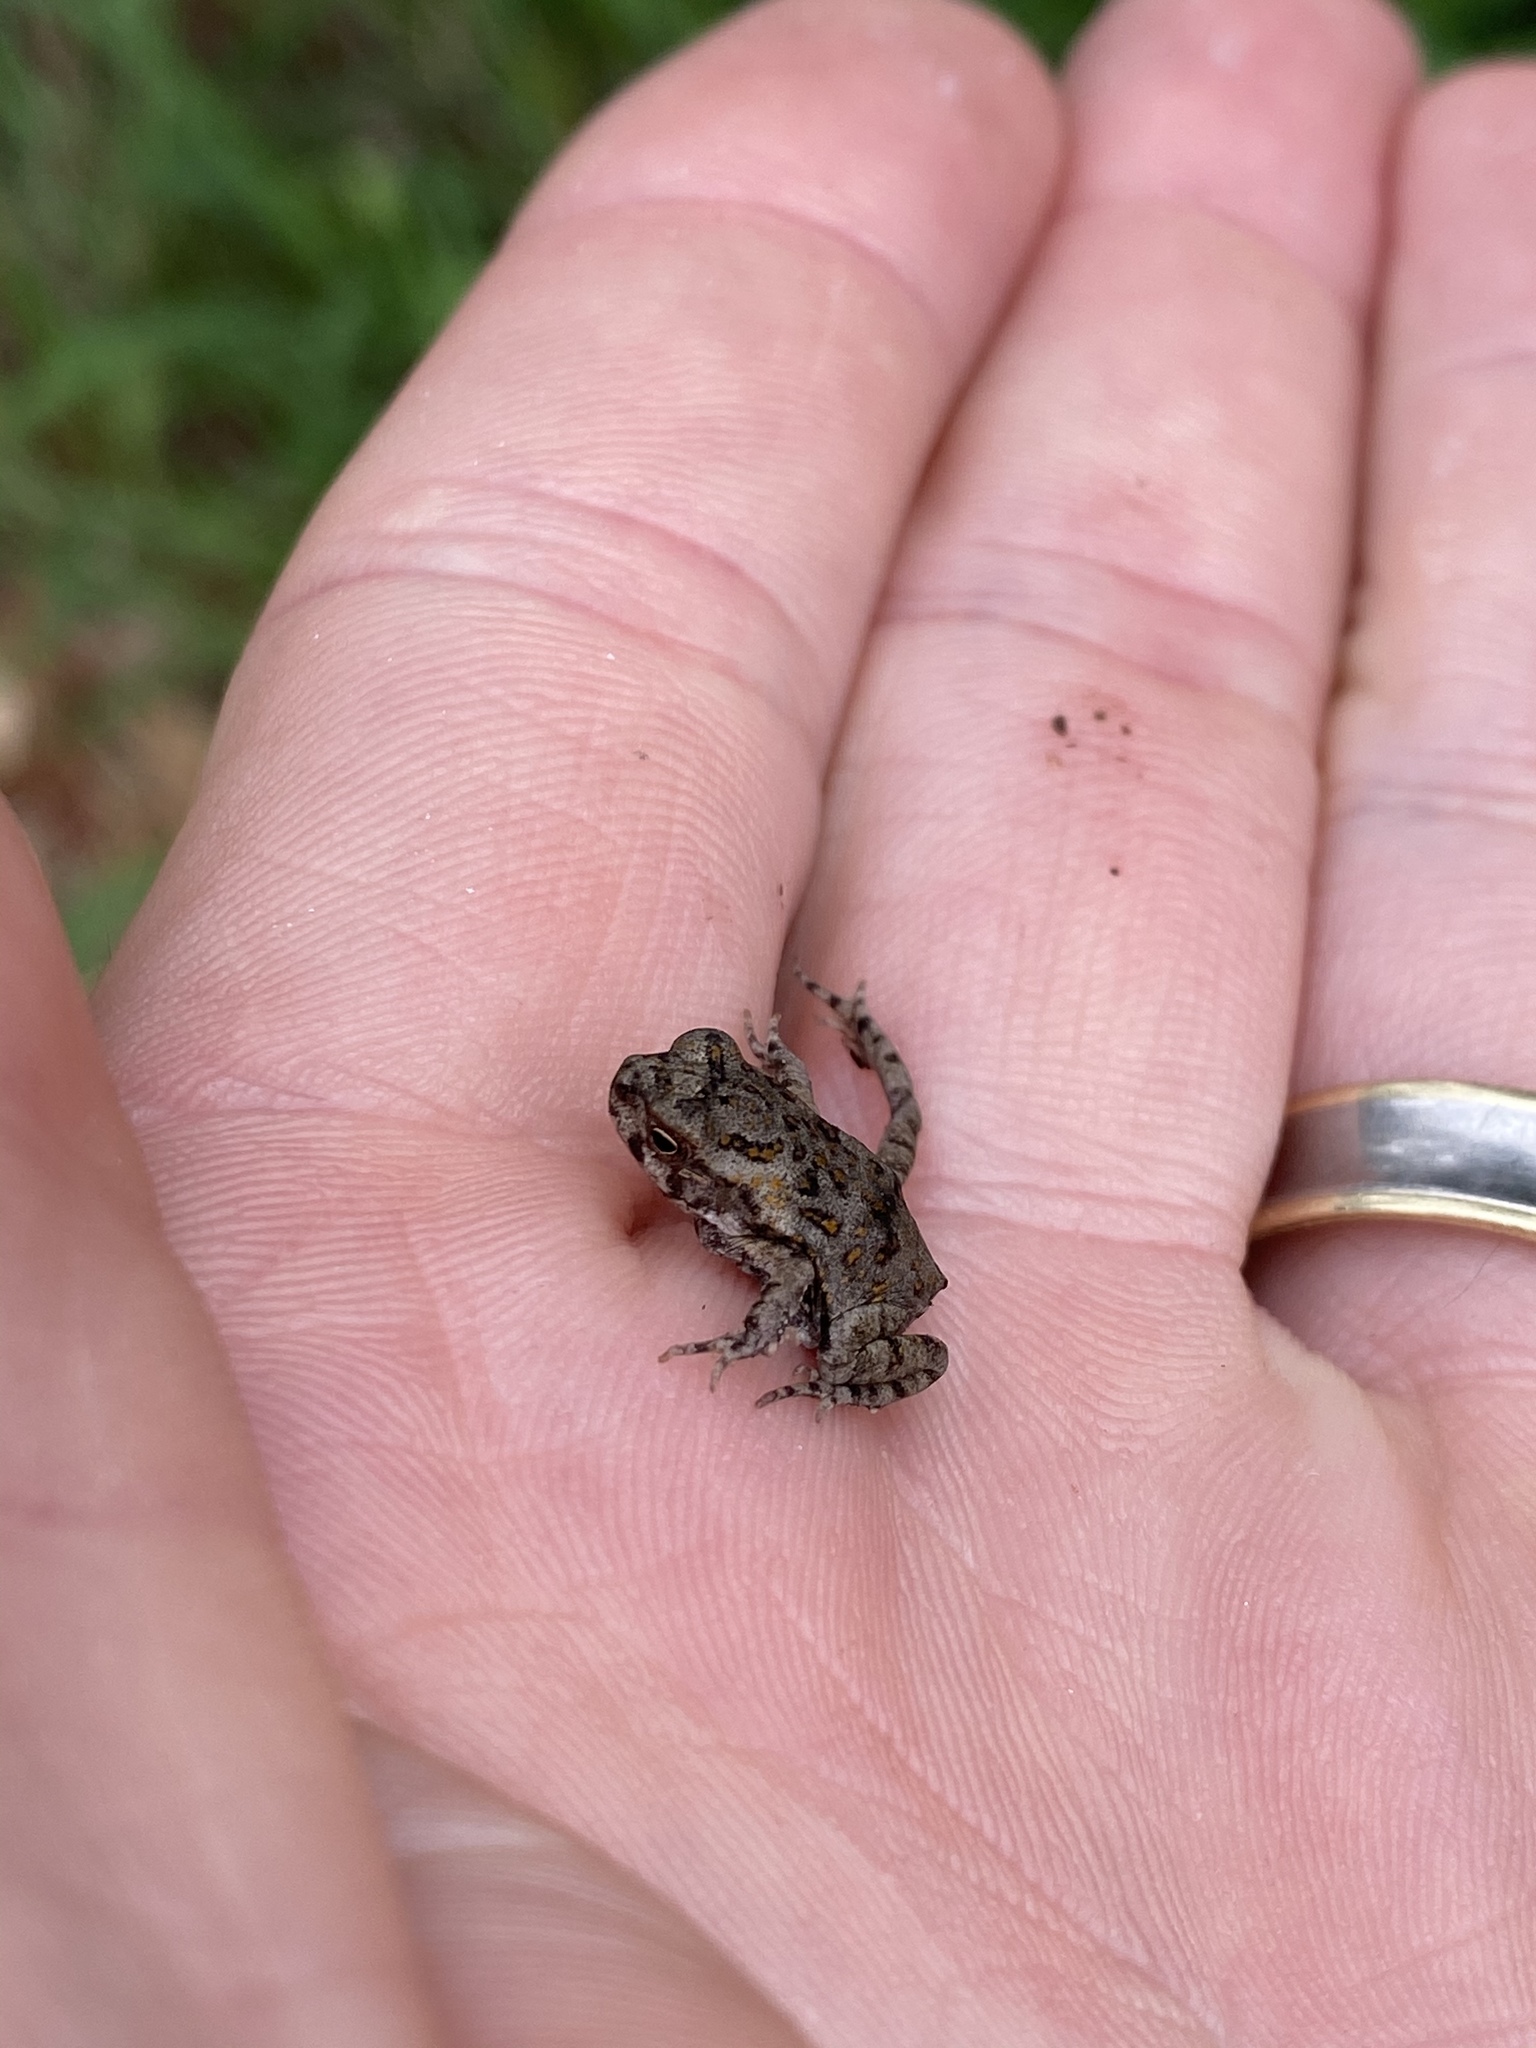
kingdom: Animalia
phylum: Chordata
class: Amphibia
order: Anura
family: Bufonidae
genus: Rhinella
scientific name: Rhinella marina
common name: Cane toad
